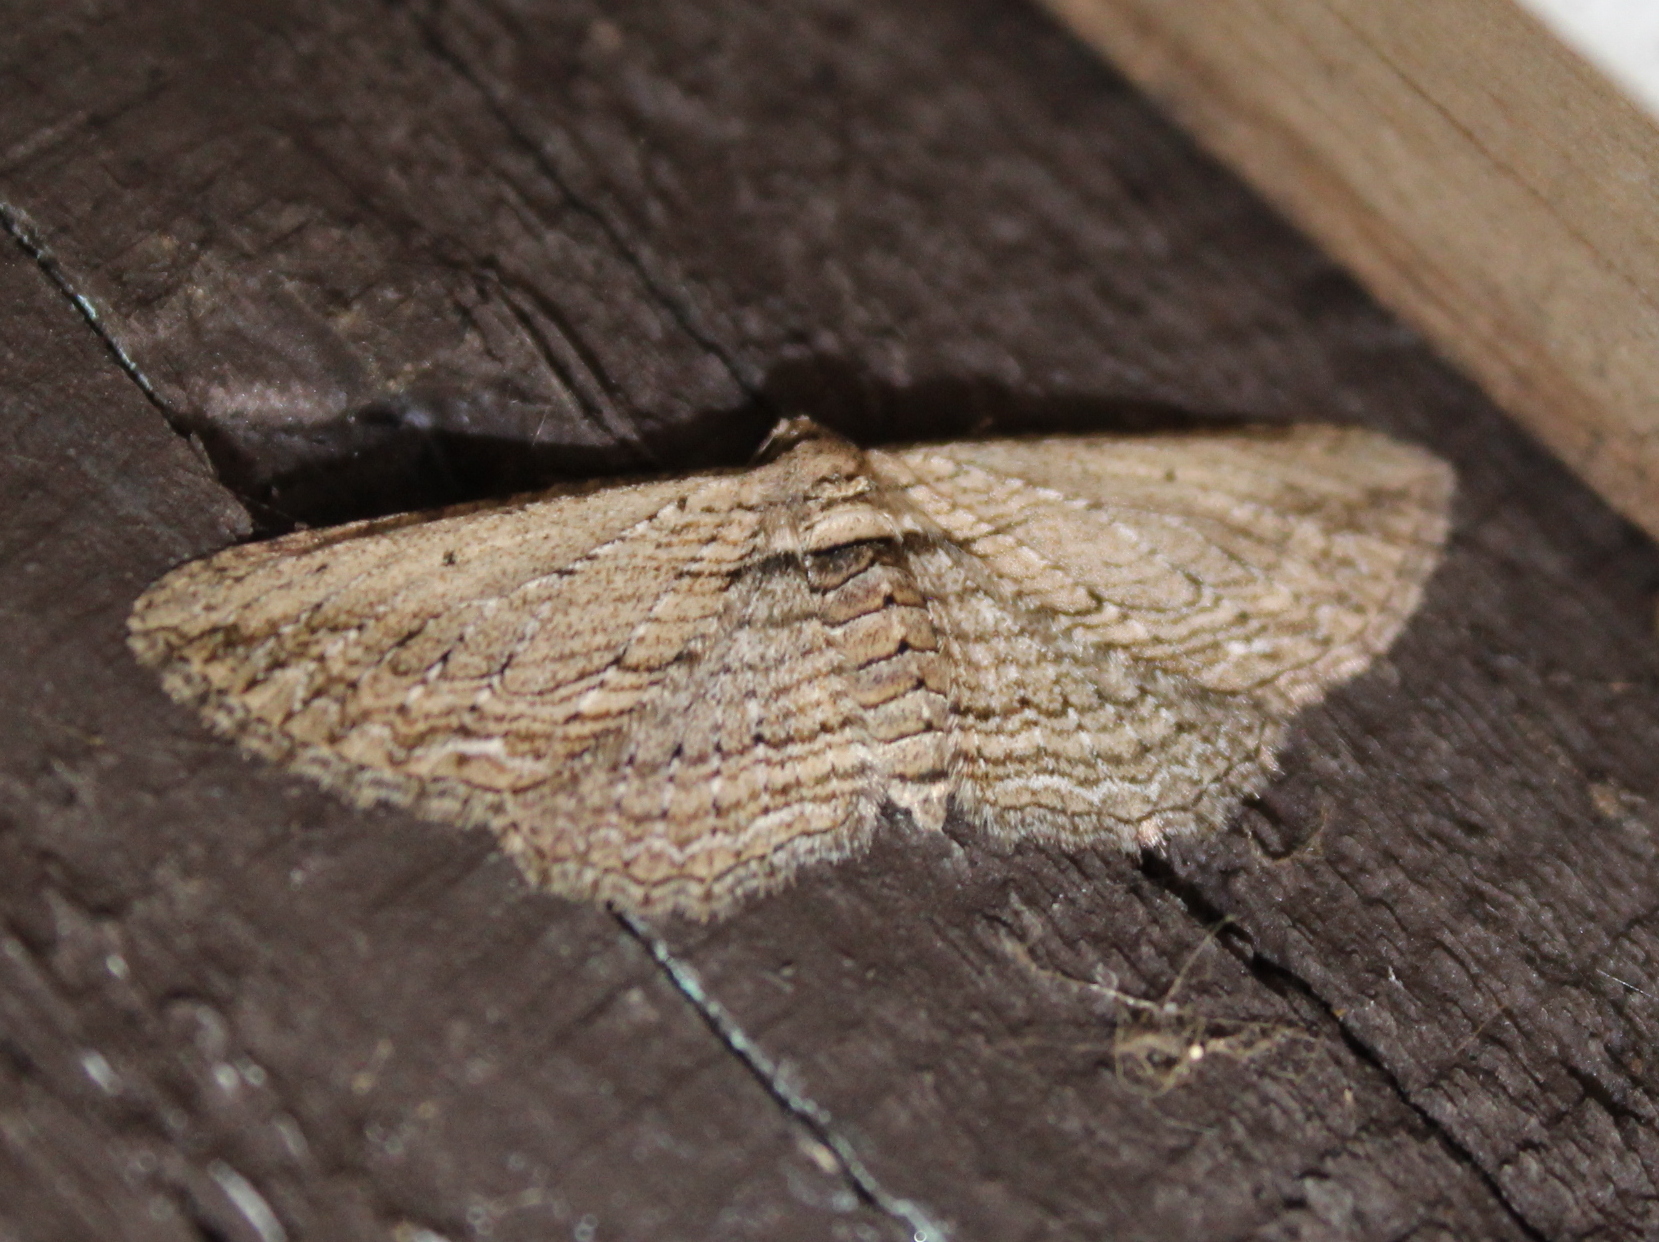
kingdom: Animalia
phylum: Arthropoda
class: Insecta
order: Lepidoptera
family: Geometridae
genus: Horisme
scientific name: Horisme intestinata
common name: Brown bark carpet
